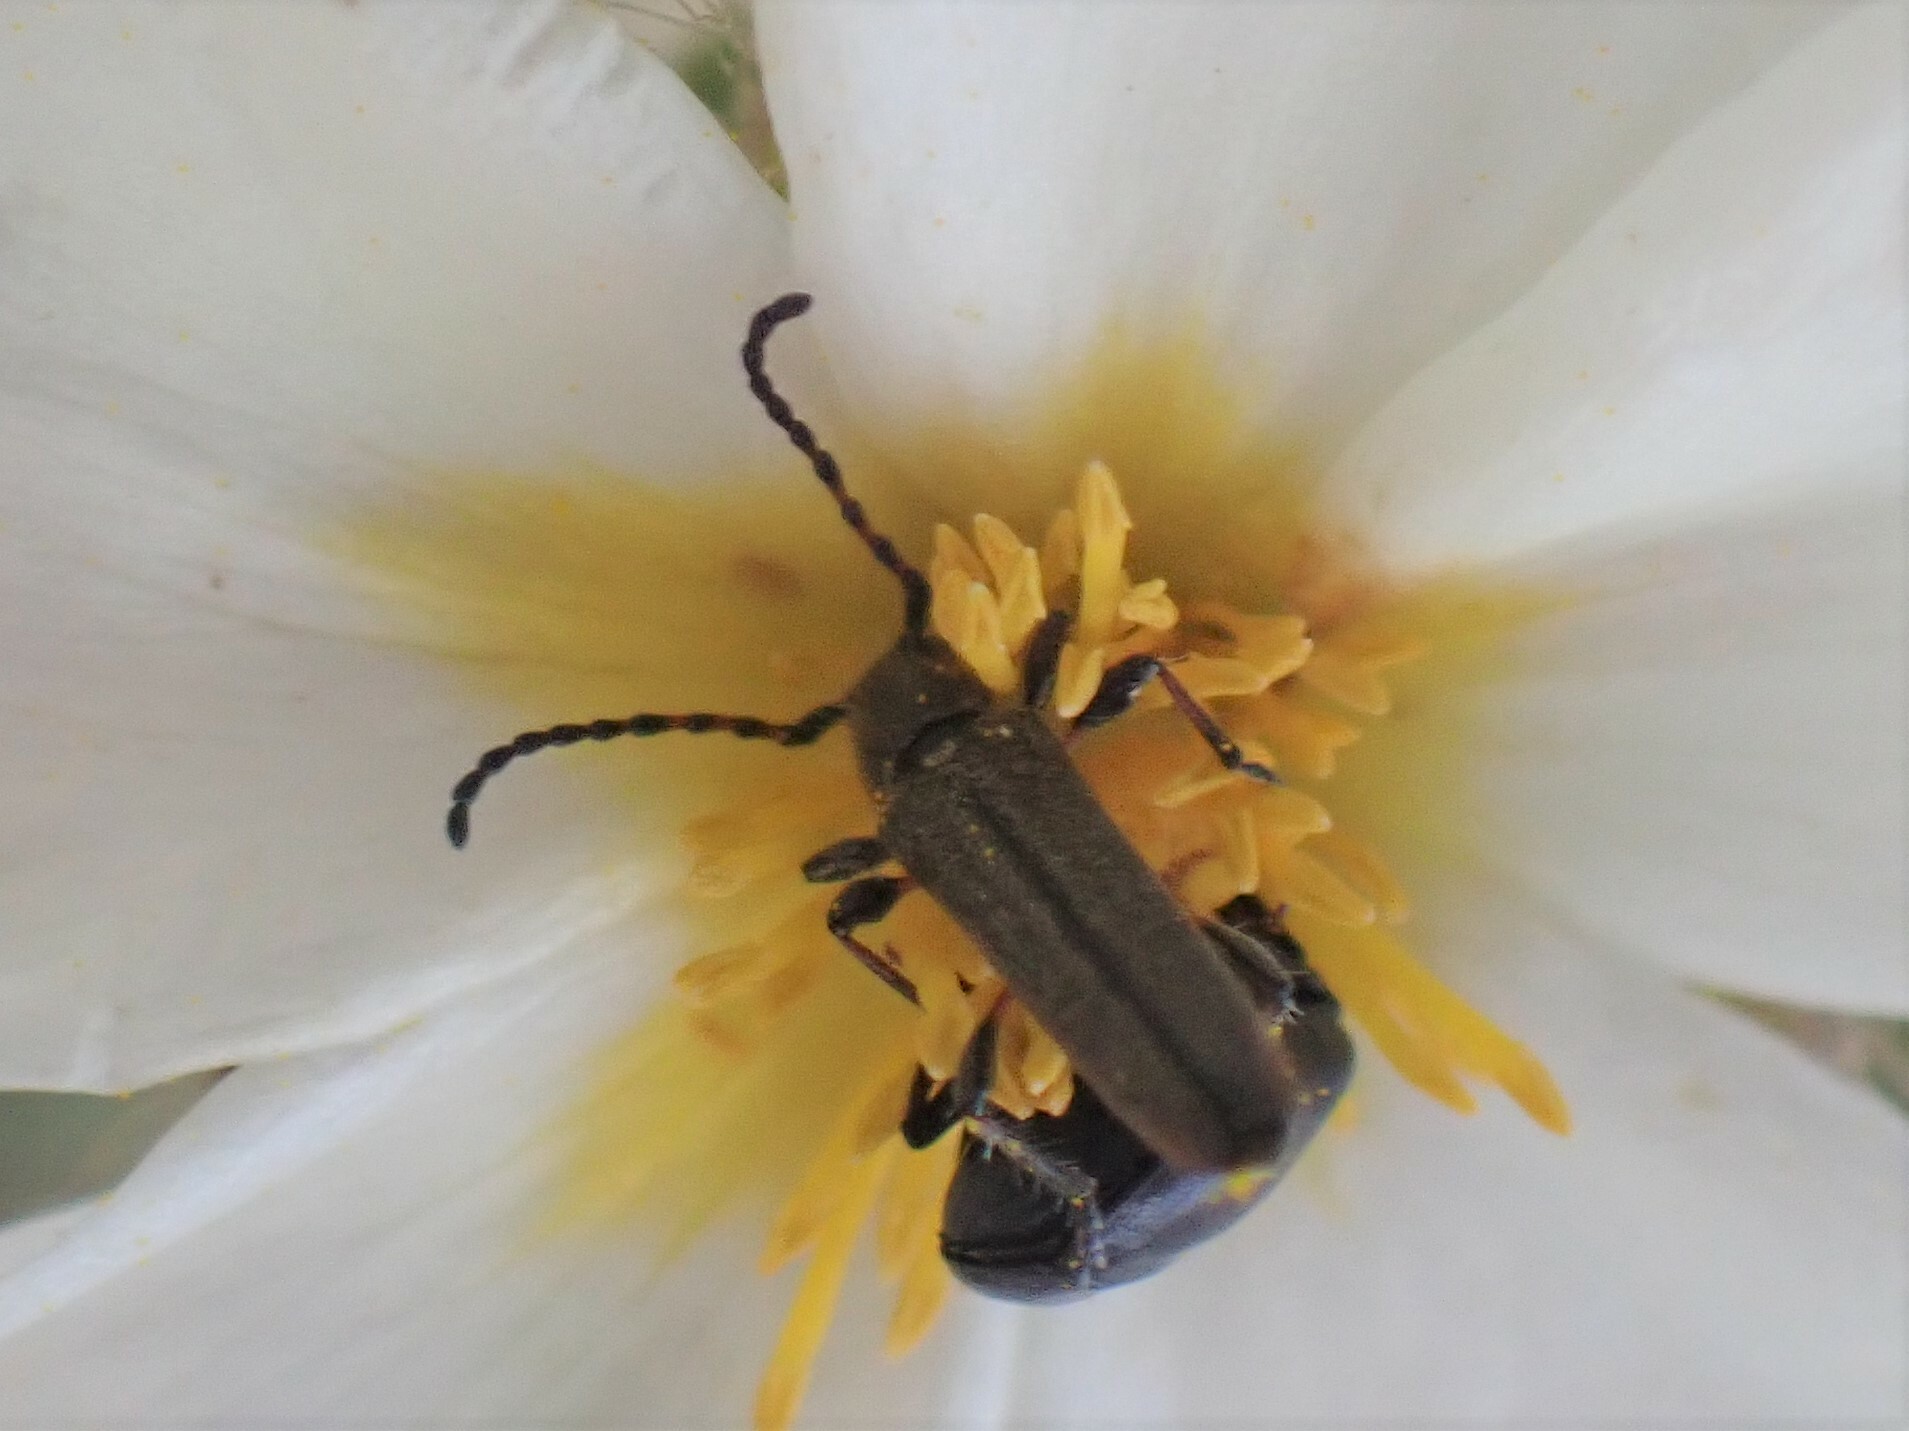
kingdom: Animalia
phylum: Arthropoda
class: Insecta
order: Coleoptera
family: Cerambycidae
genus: Deilus
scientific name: Deilus fugax
